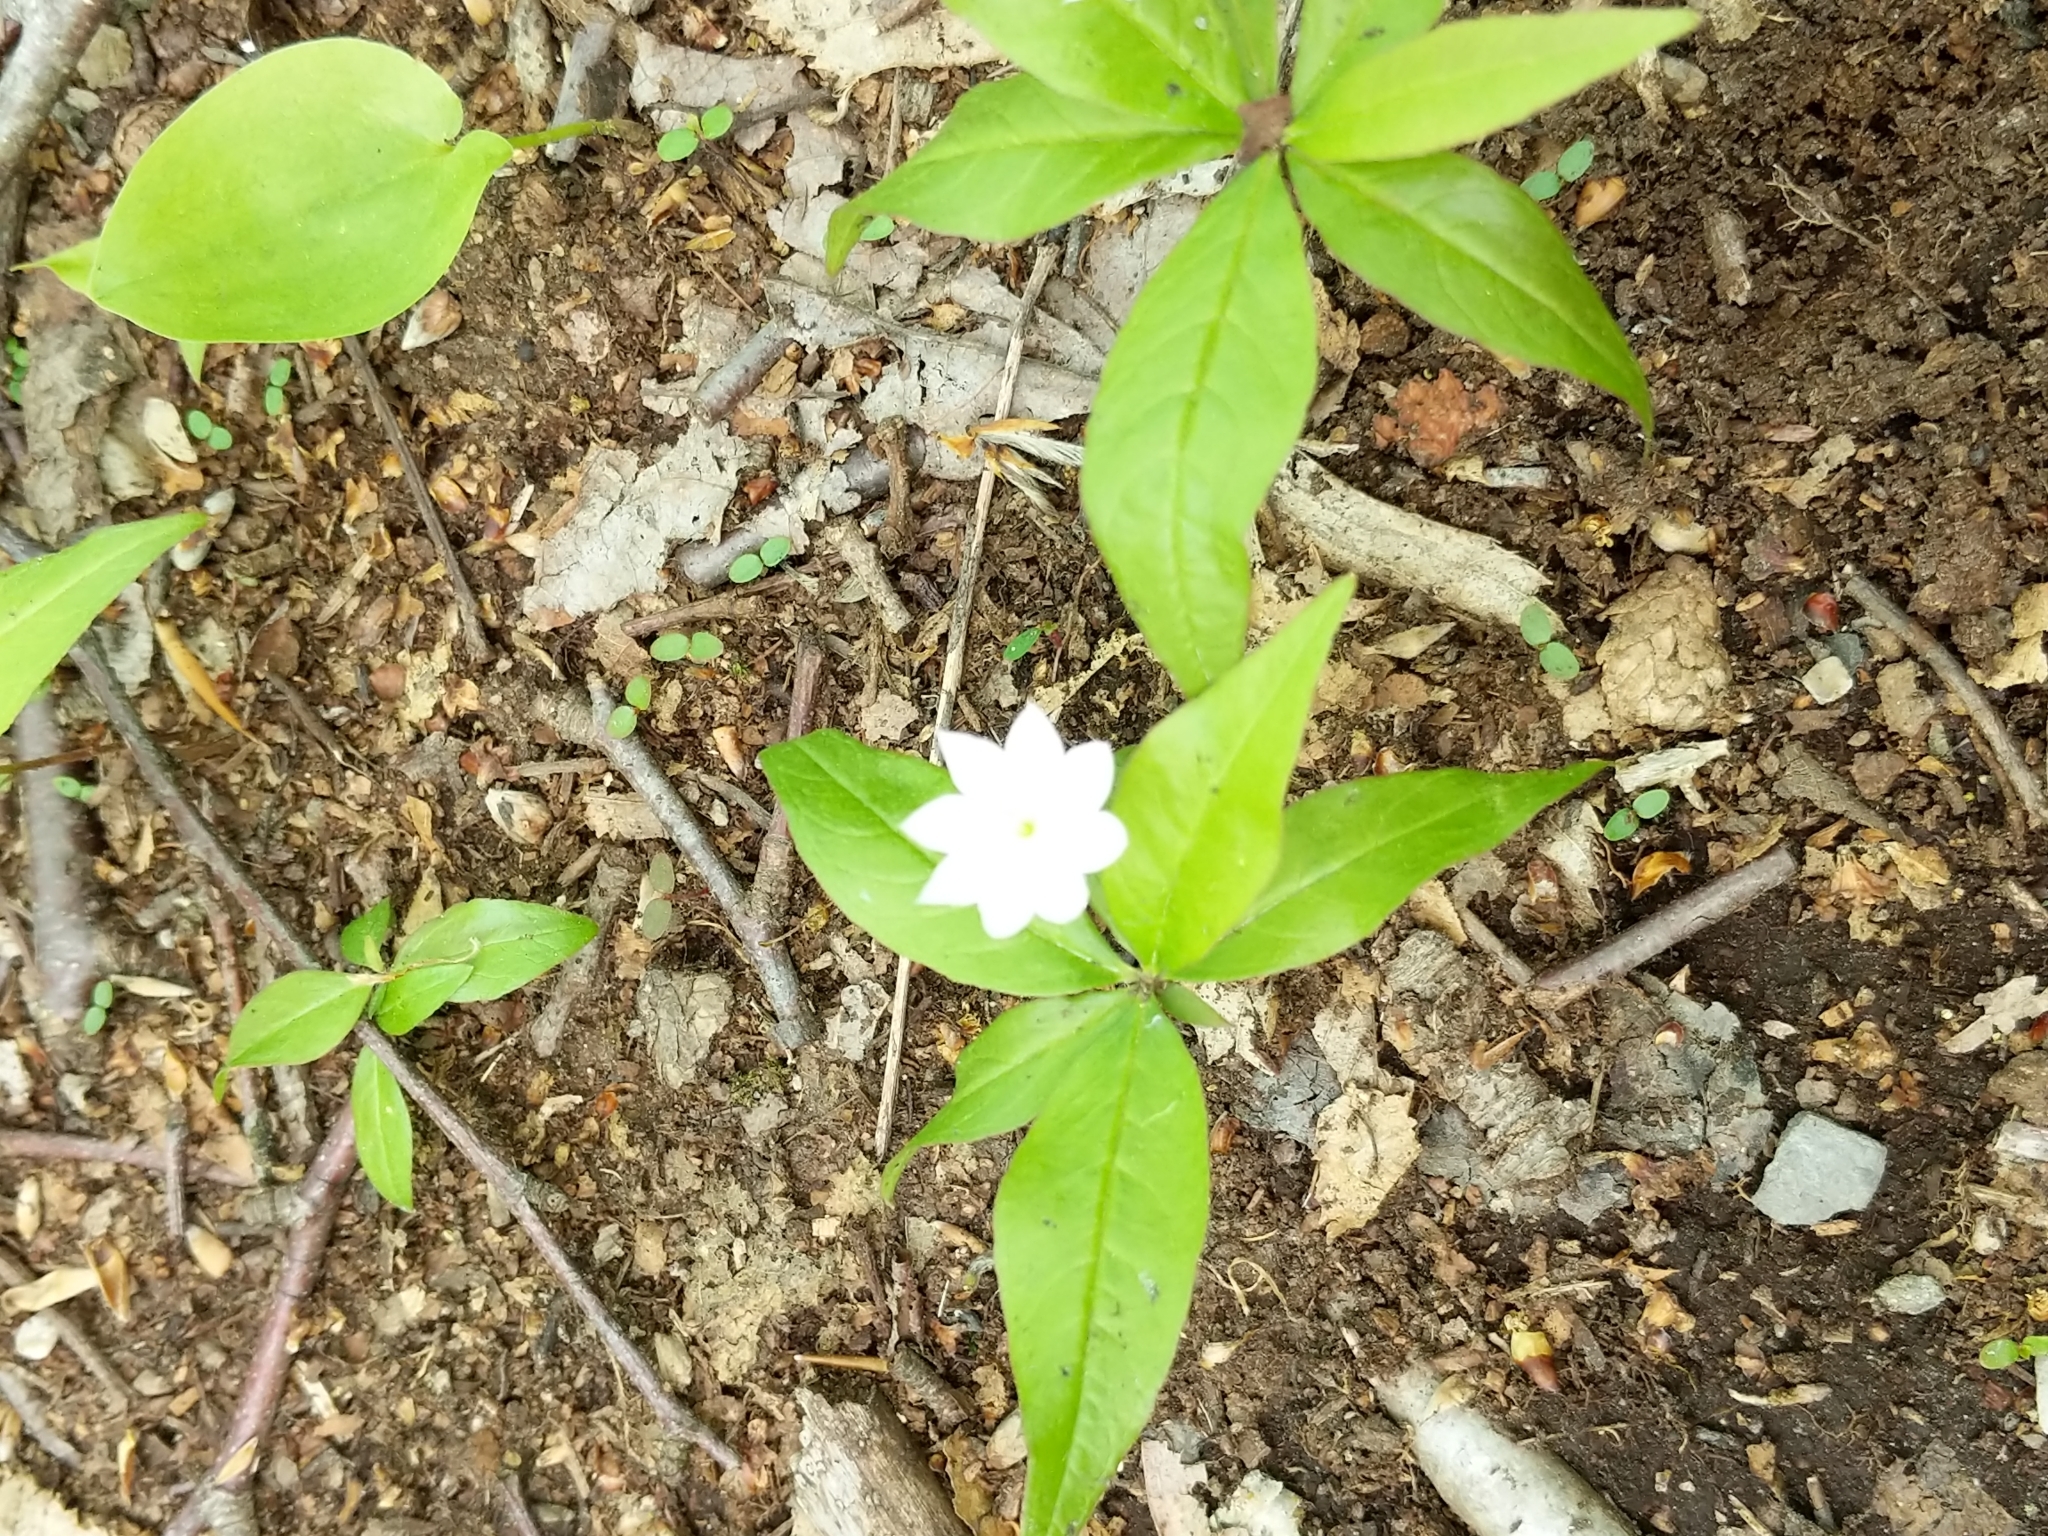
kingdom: Plantae
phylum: Tracheophyta
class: Magnoliopsida
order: Ericales
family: Primulaceae
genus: Lysimachia
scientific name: Lysimachia borealis
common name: American starflower
